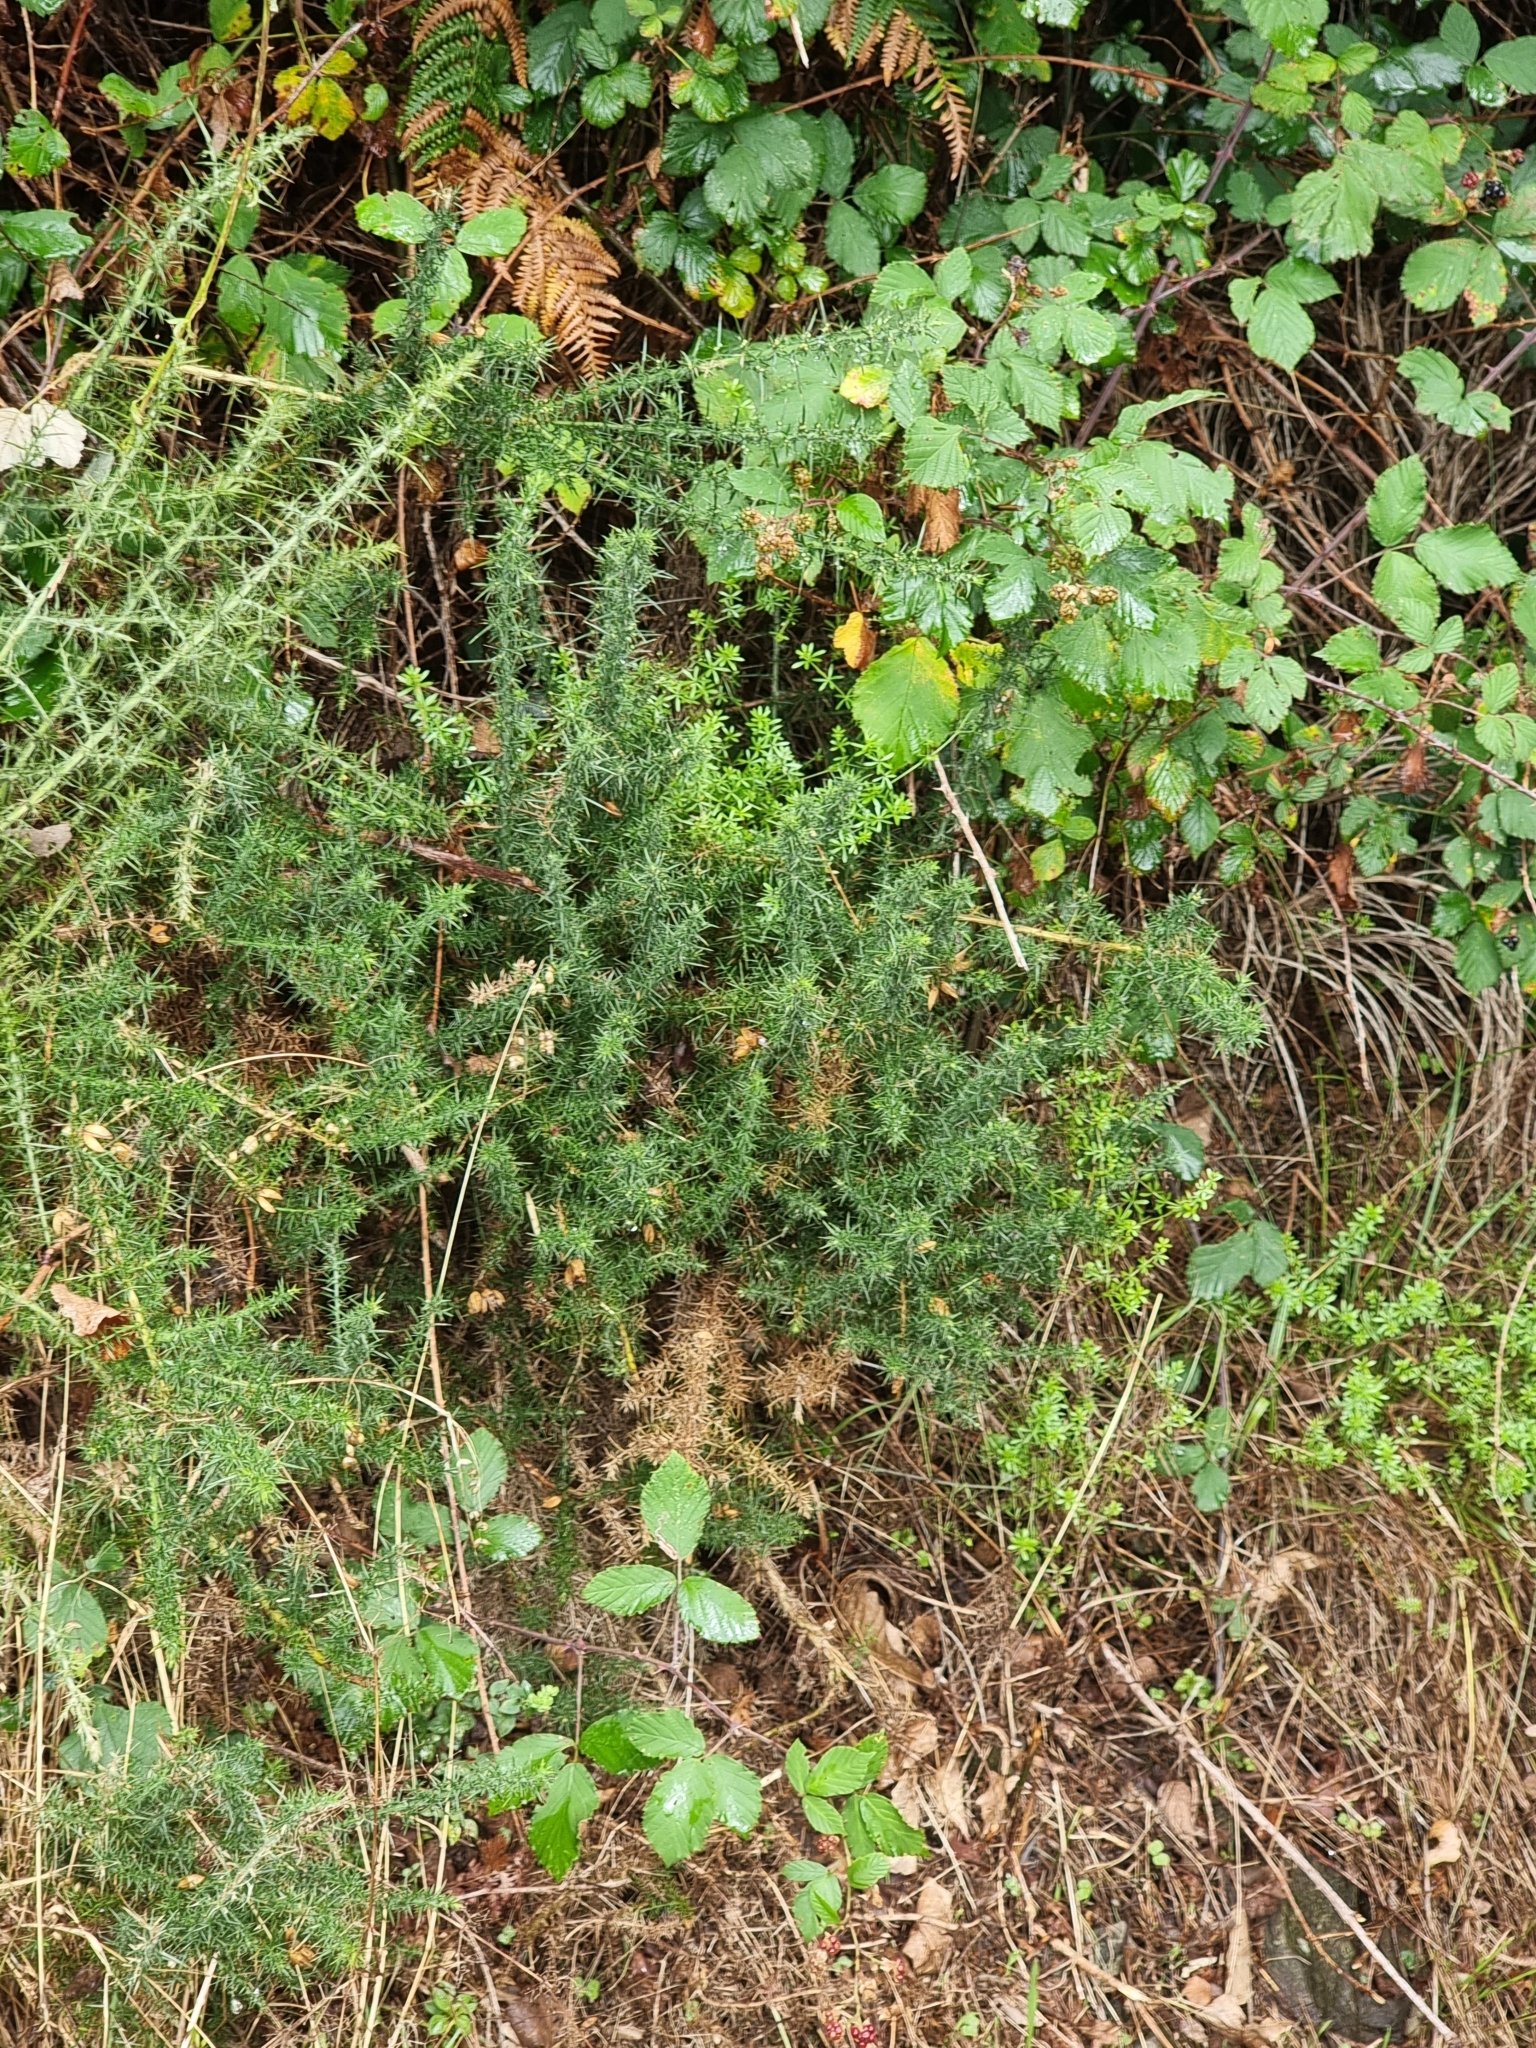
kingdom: Plantae
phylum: Tracheophyta
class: Magnoliopsida
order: Fabales
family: Fabaceae
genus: Ulex
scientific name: Ulex europaeus
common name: Common gorse
